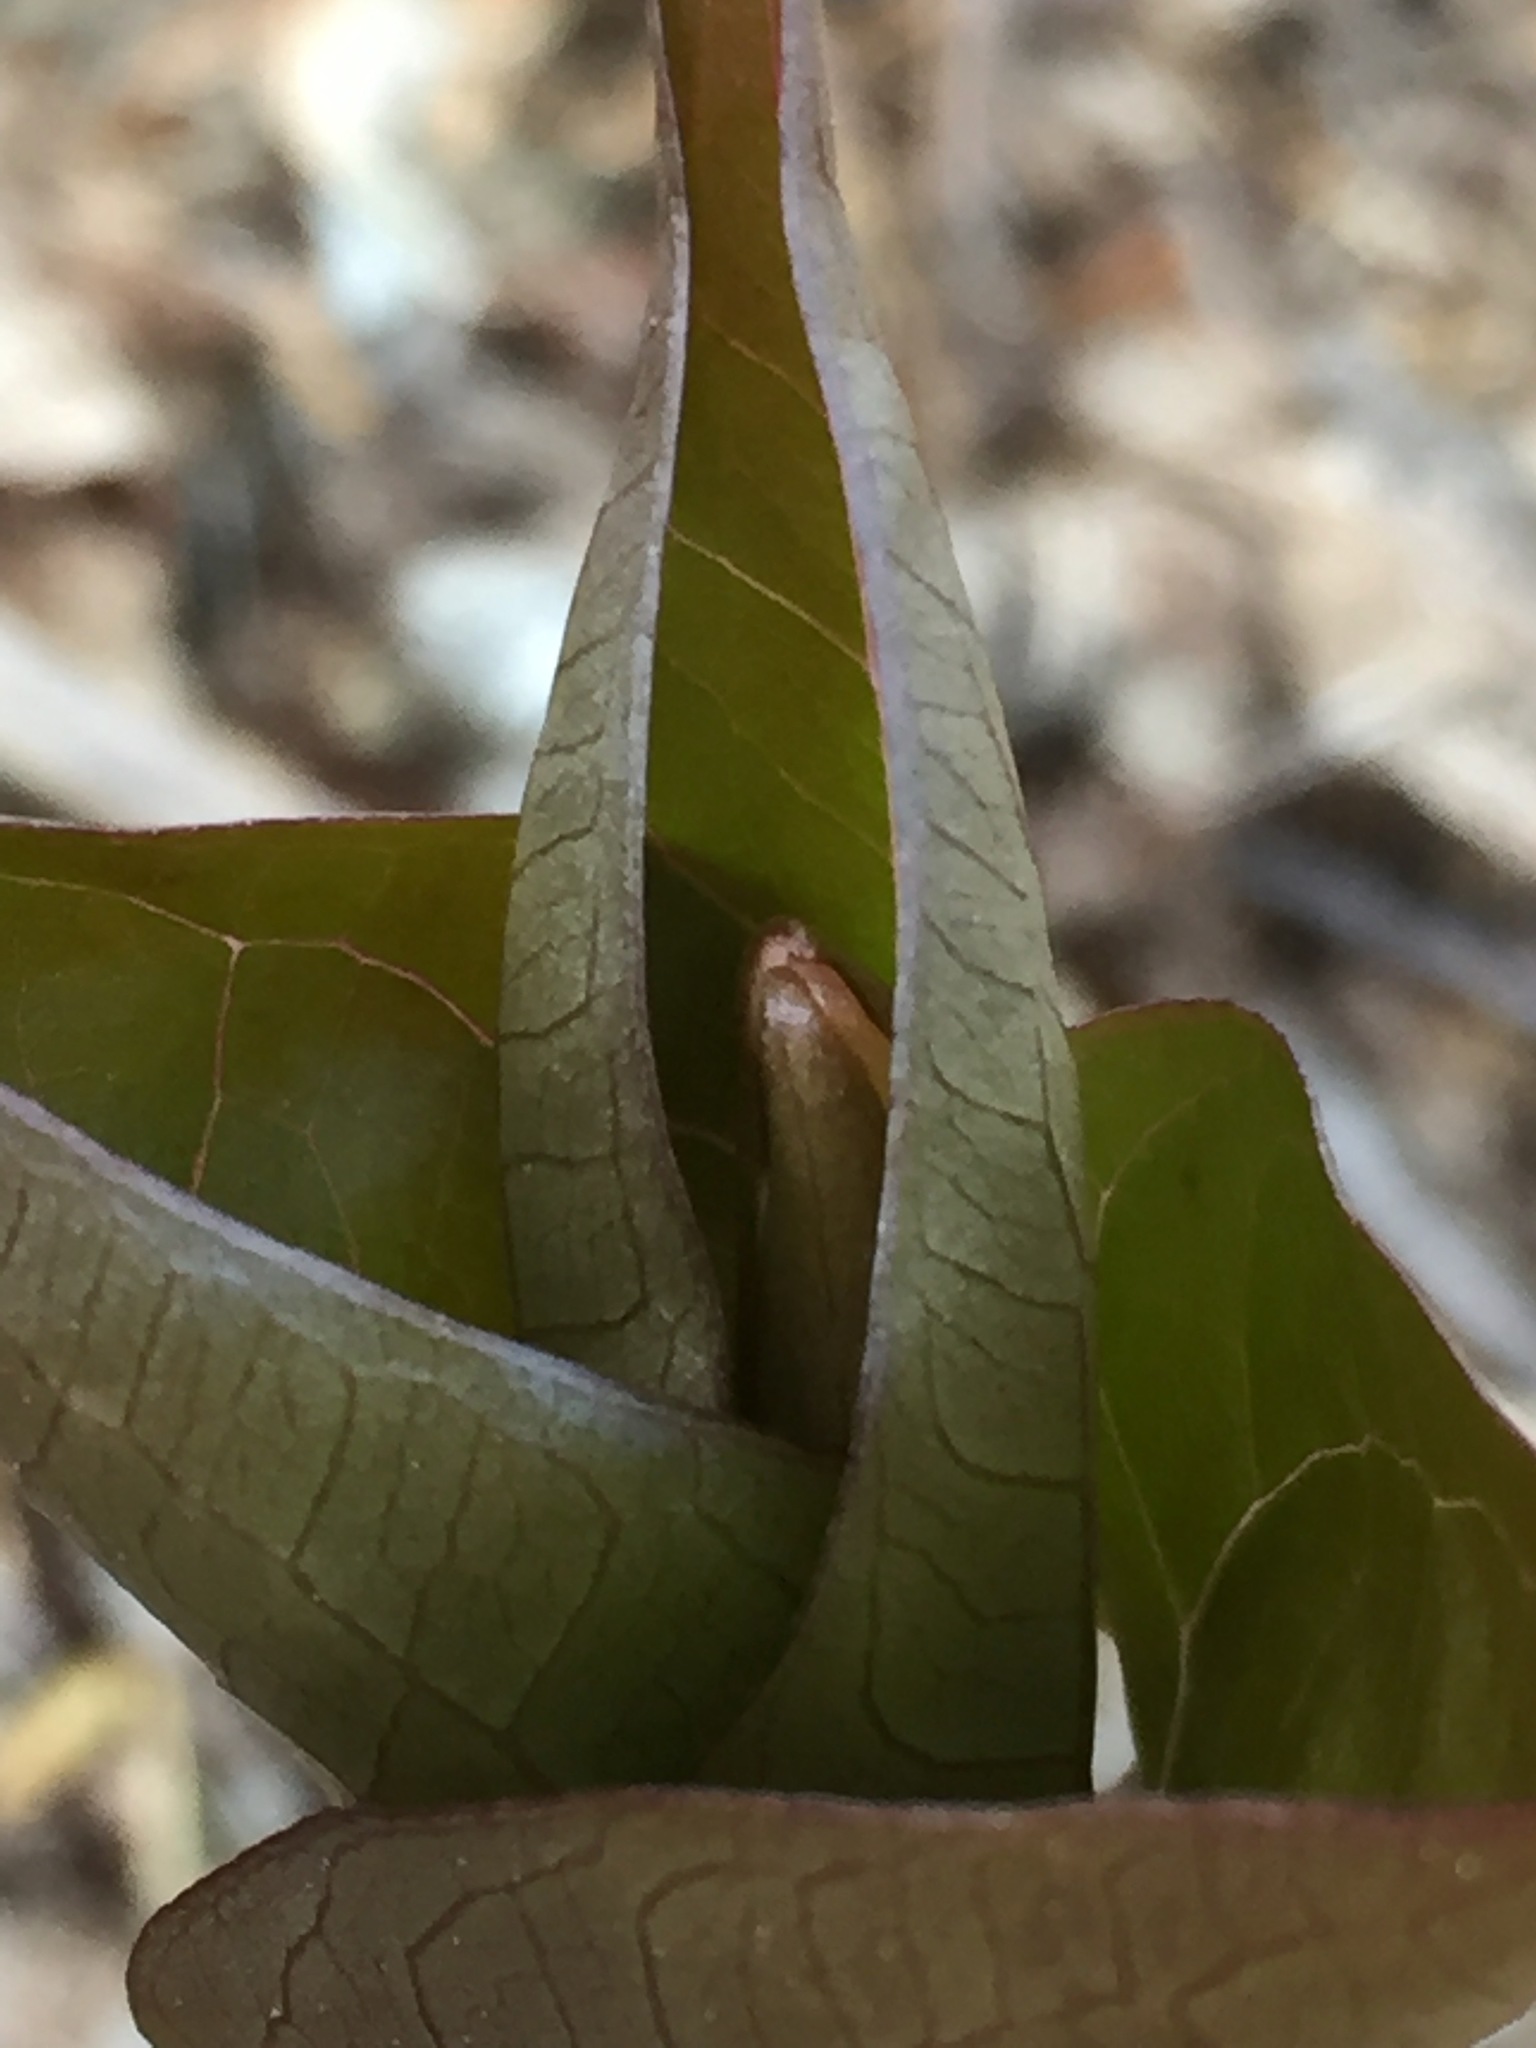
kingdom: Plantae
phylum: Tracheophyta
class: Liliopsida
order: Liliales
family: Melanthiaceae
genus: Trillium
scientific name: Trillium undulatum
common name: Paint trillium
